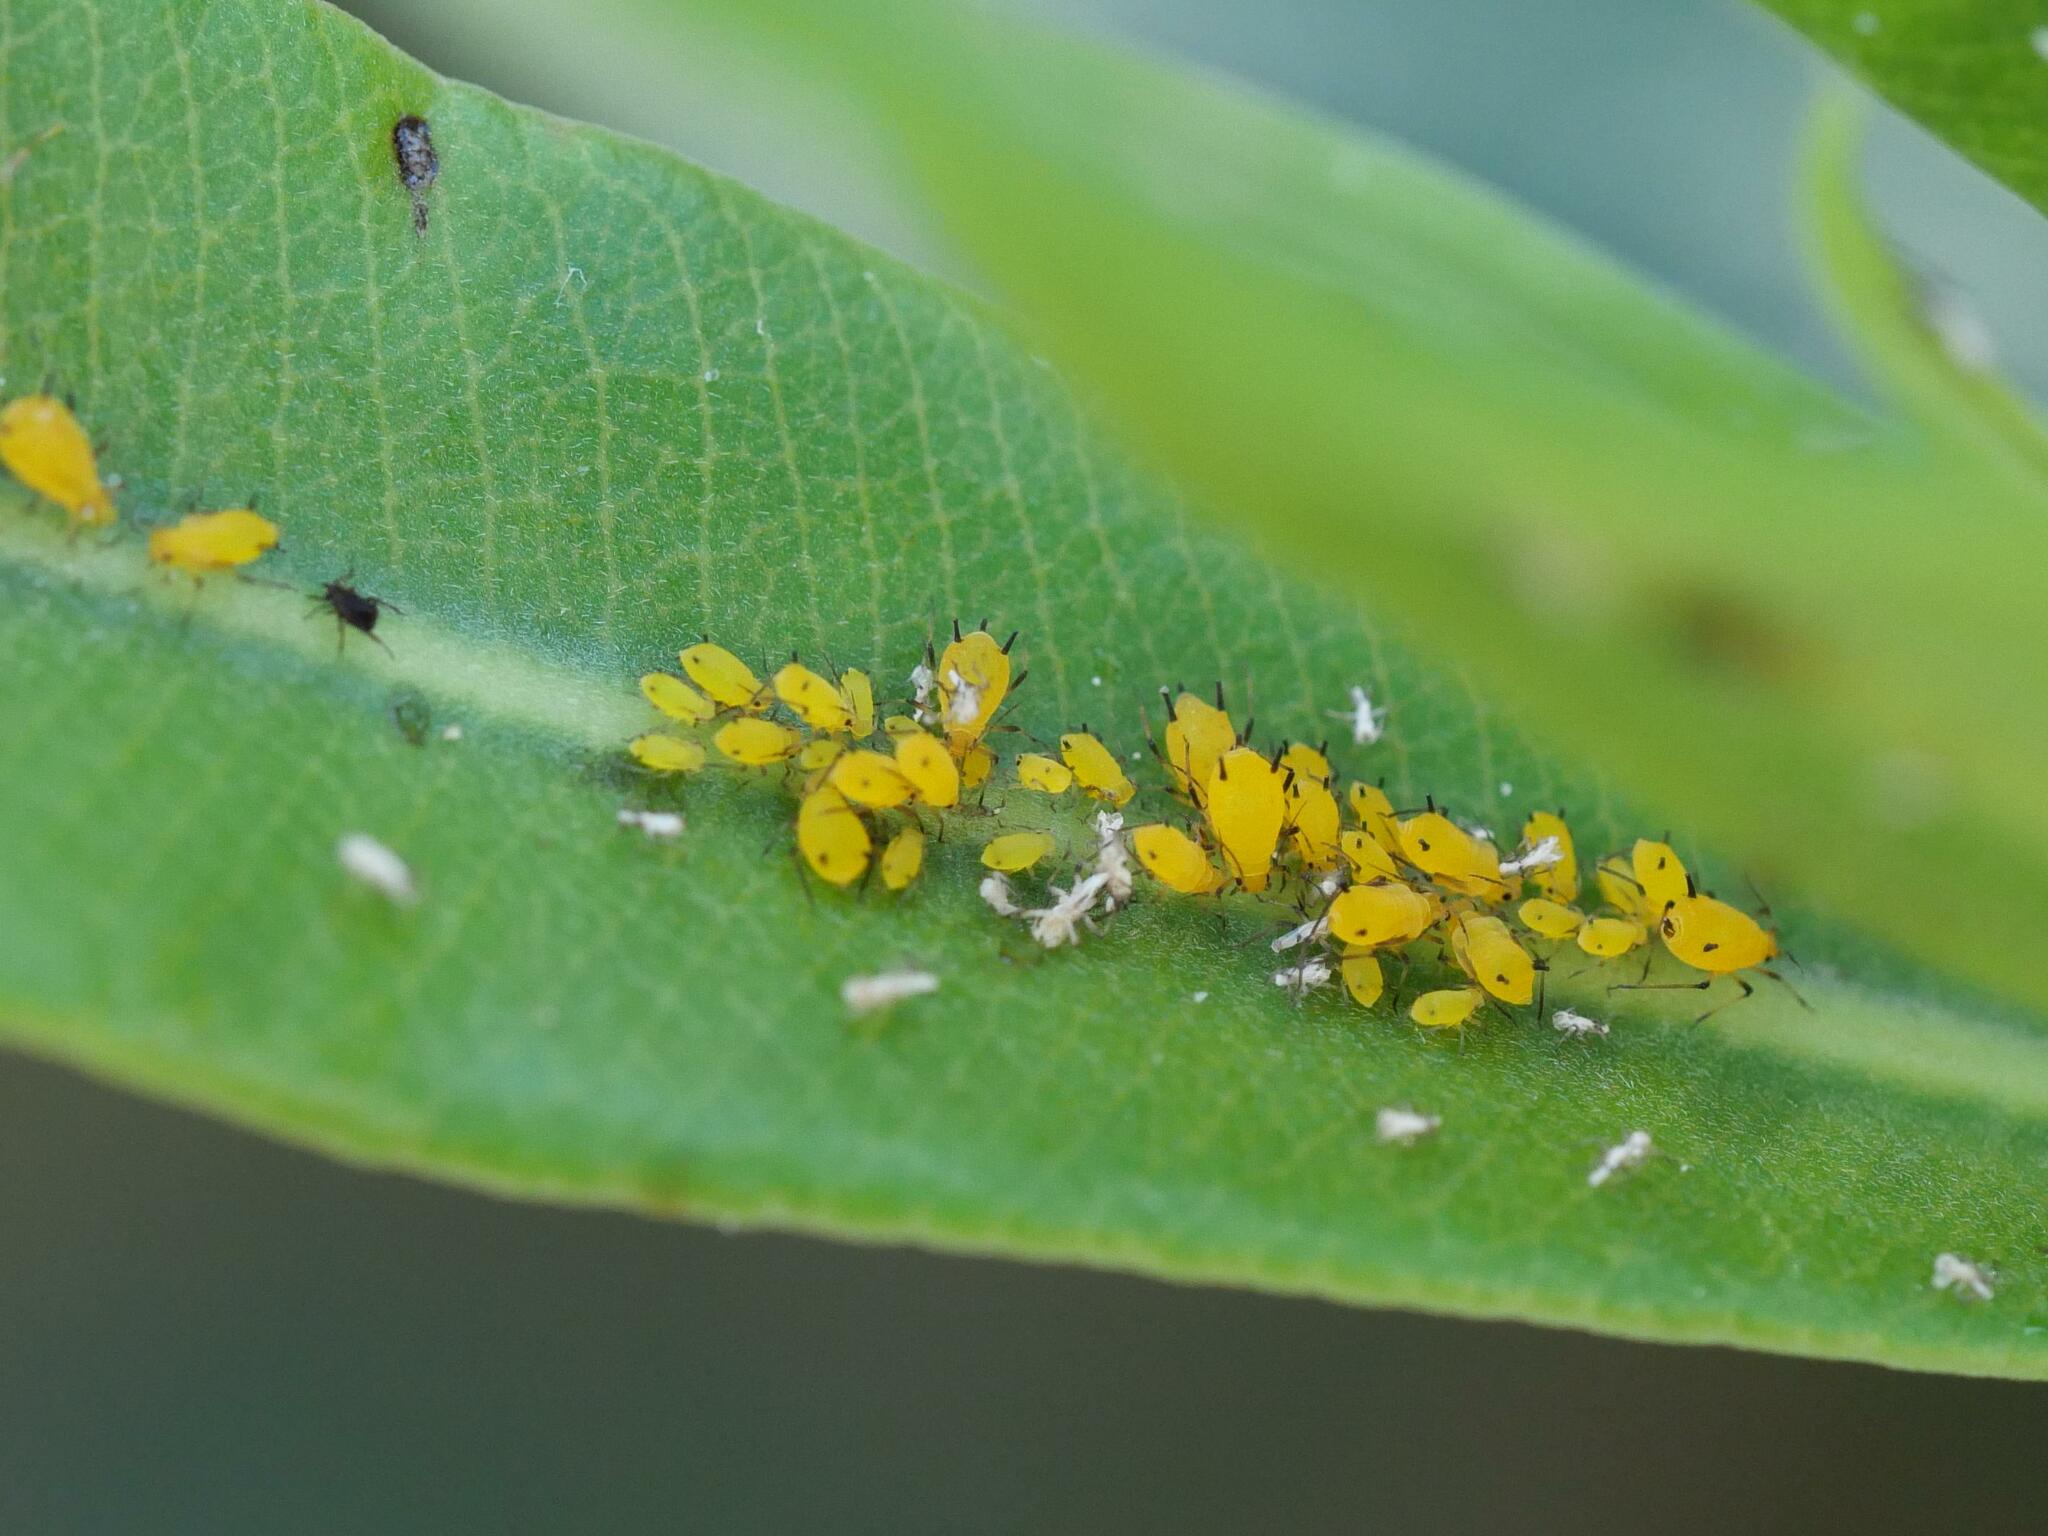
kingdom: Animalia
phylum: Arthropoda
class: Insecta
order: Hemiptera
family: Aphididae
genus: Aphis
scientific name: Aphis nerii
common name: Oleander aphid
